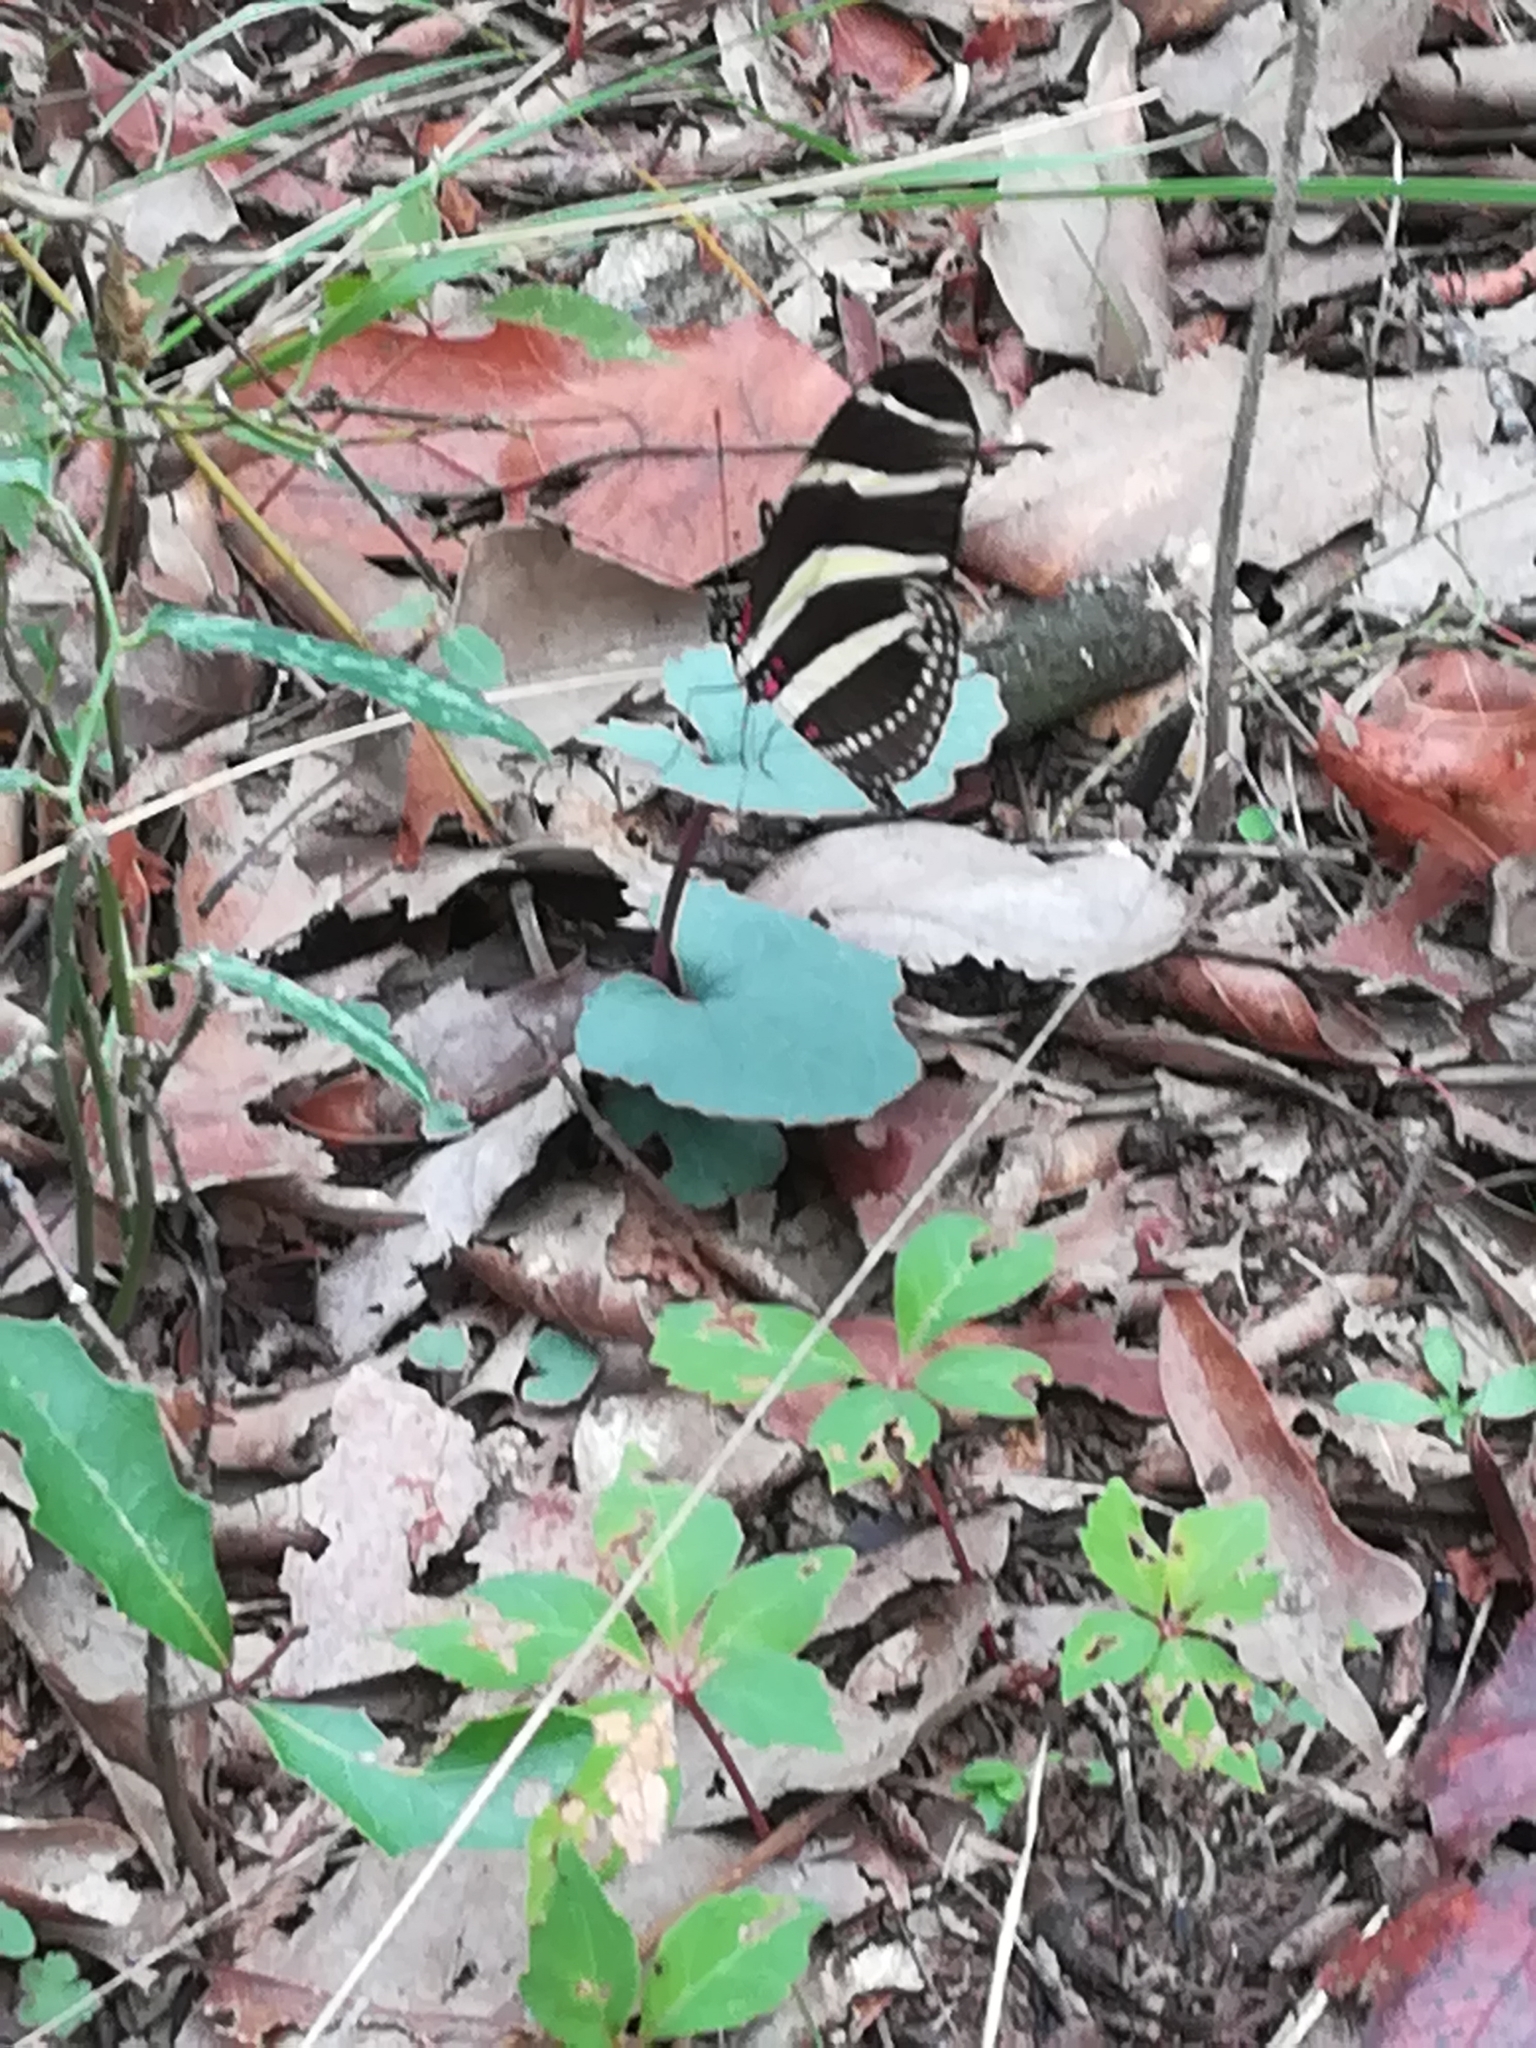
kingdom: Animalia
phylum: Arthropoda
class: Insecta
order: Lepidoptera
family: Nymphalidae
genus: Heliconius
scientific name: Heliconius charithonia
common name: Zebra long wing
